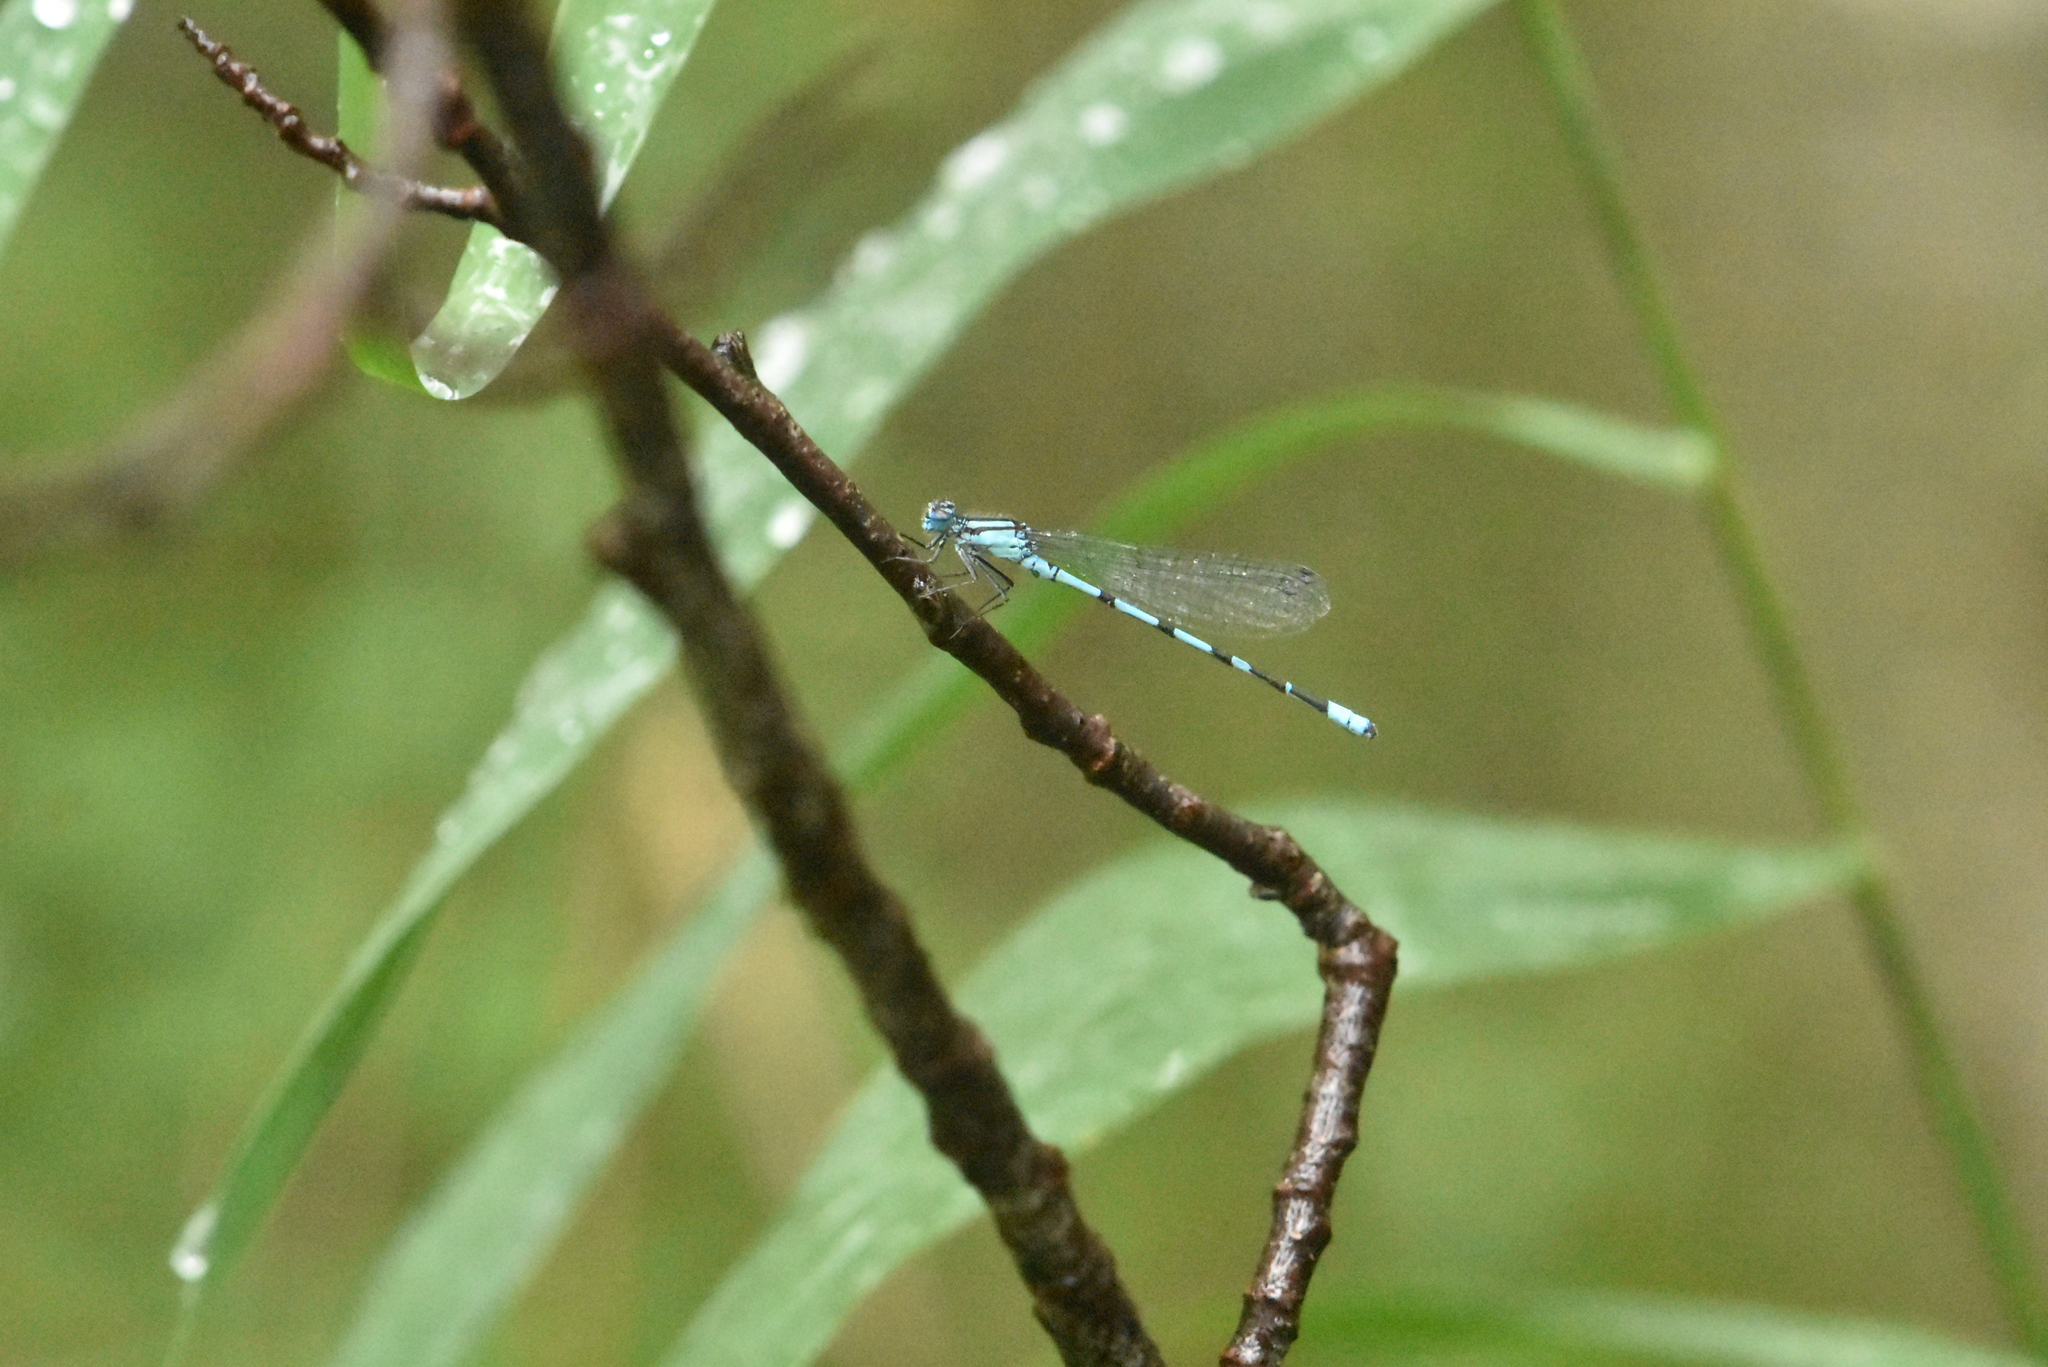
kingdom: Animalia
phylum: Arthropoda
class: Insecta
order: Odonata
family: Coenagrionidae
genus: Enallagma
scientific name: Enallagma cyathigerum
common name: Common blue damselfly
